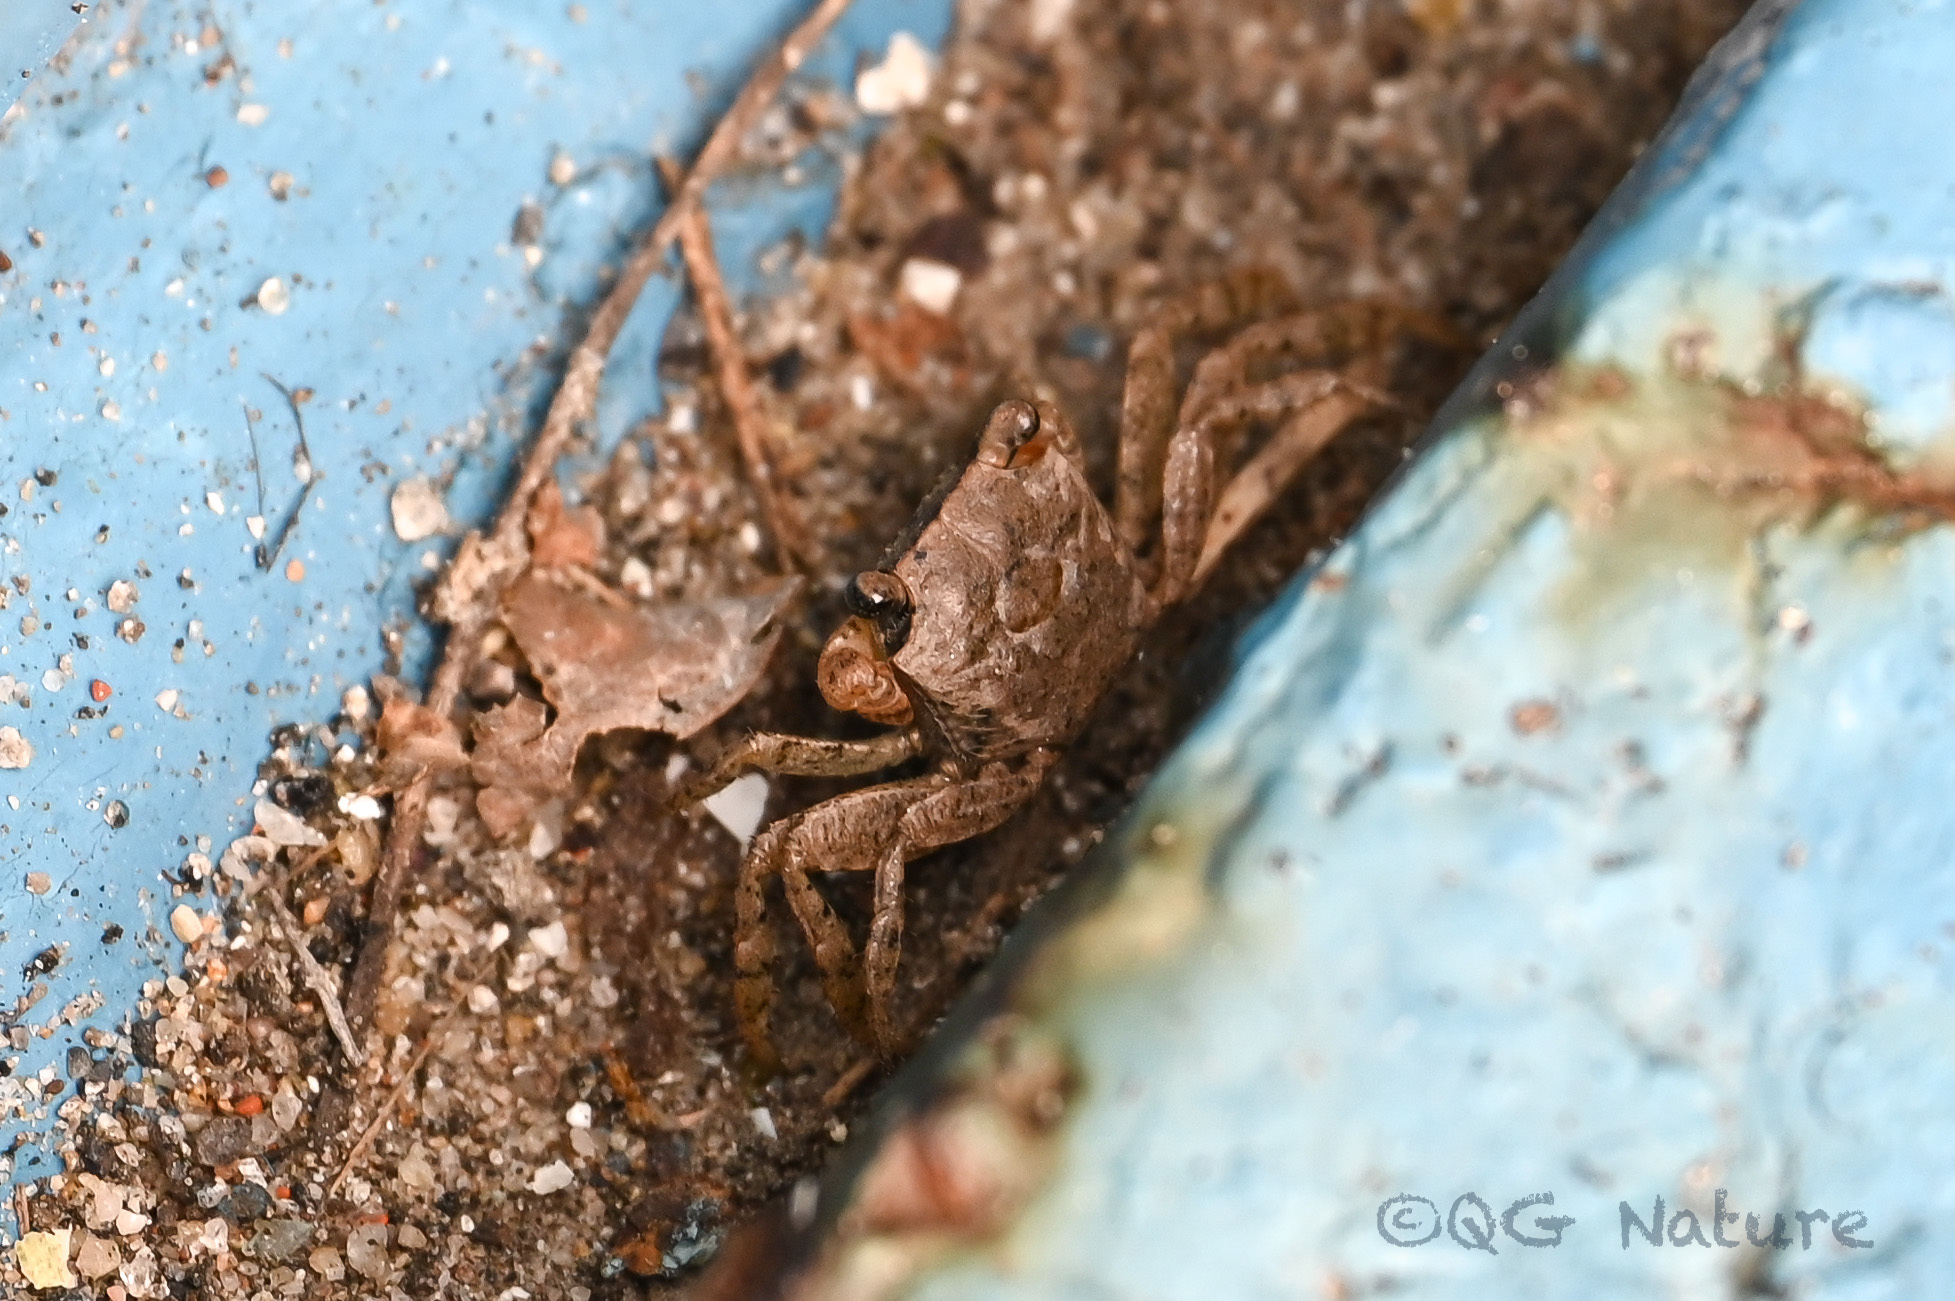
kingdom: Animalia
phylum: Arthropoda
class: Malacostraca
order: Decapoda
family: Sesarmidae
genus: Chiromantes
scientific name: Chiromantes haematocheir
